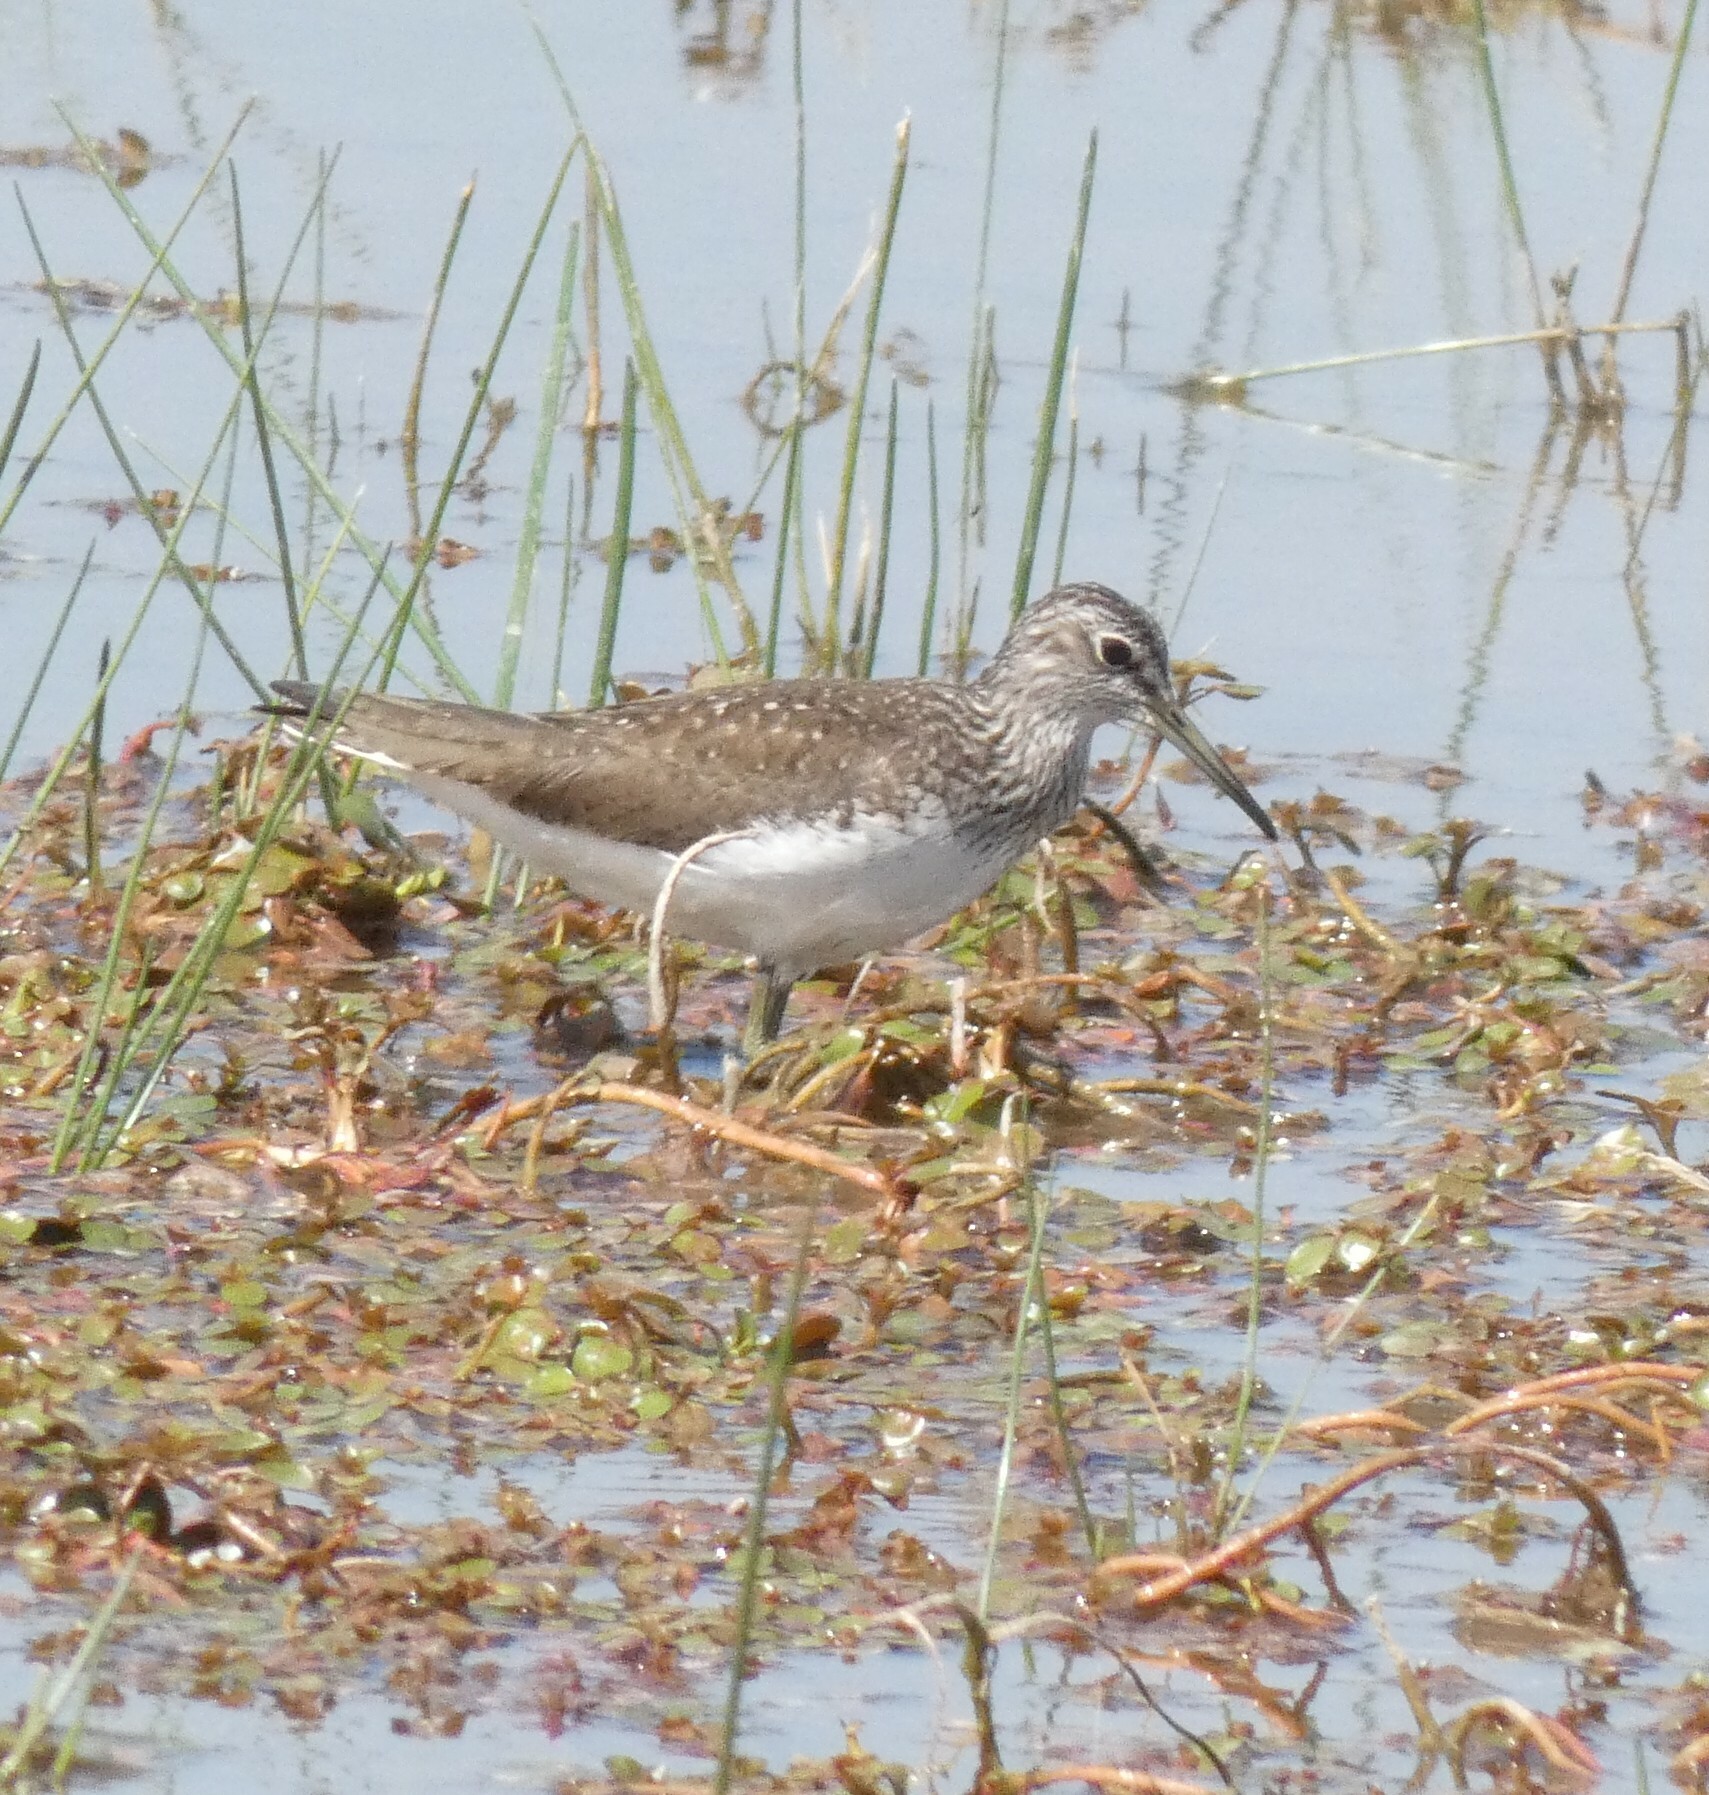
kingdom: Animalia
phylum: Chordata
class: Aves
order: Charadriiformes
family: Scolopacidae
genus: Tringa
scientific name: Tringa ochropus
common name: Green sandpiper
